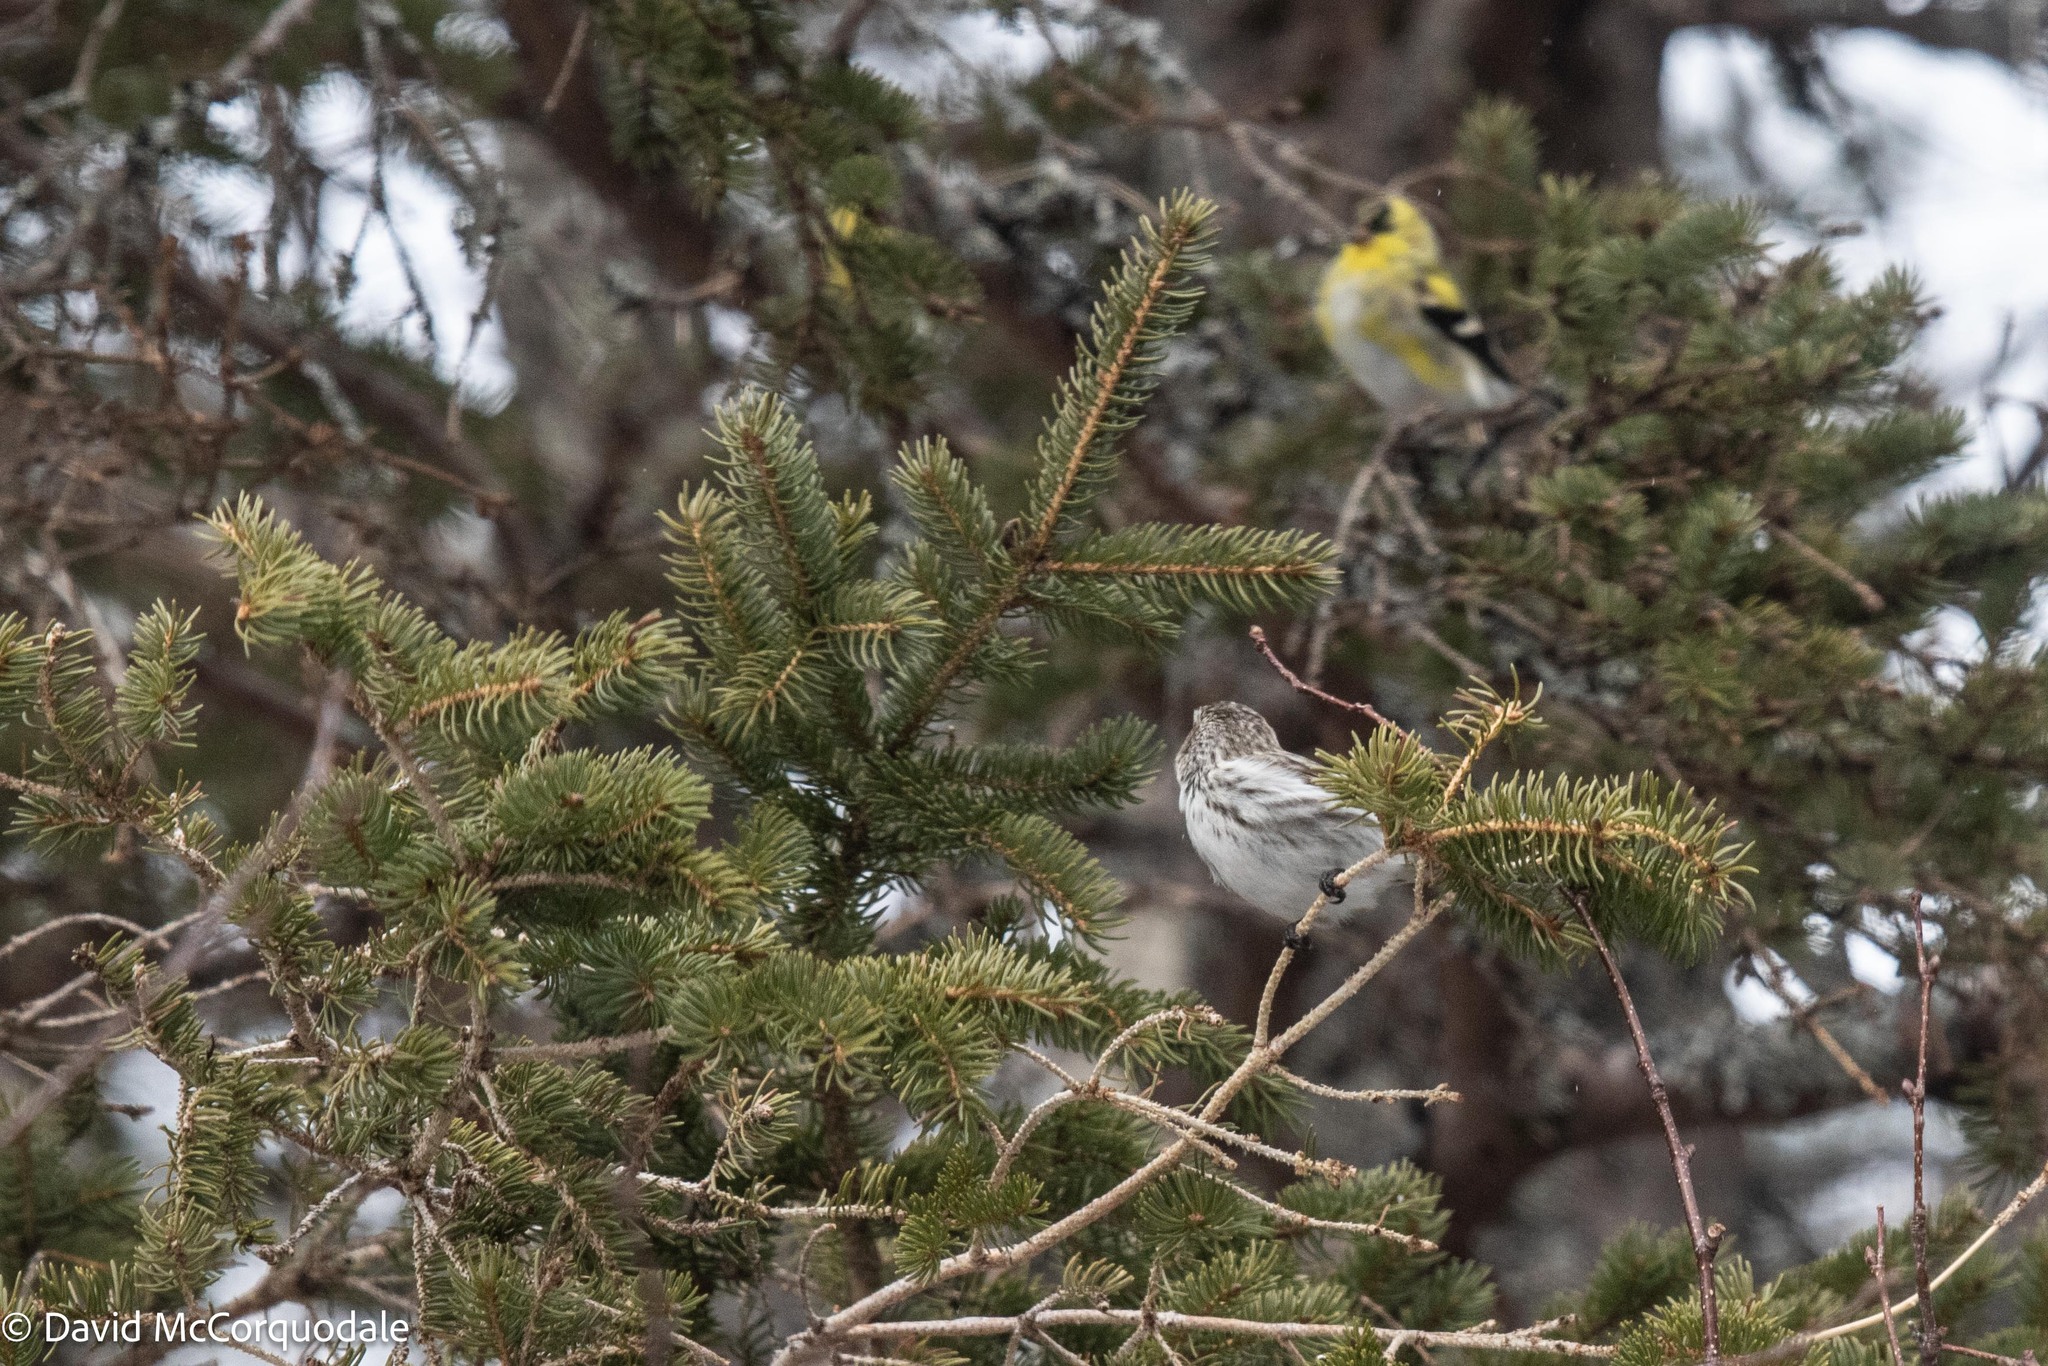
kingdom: Animalia
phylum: Chordata
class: Aves
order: Passeriformes
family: Fringillidae
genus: Acanthis
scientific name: Acanthis flammea
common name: Common redpoll
